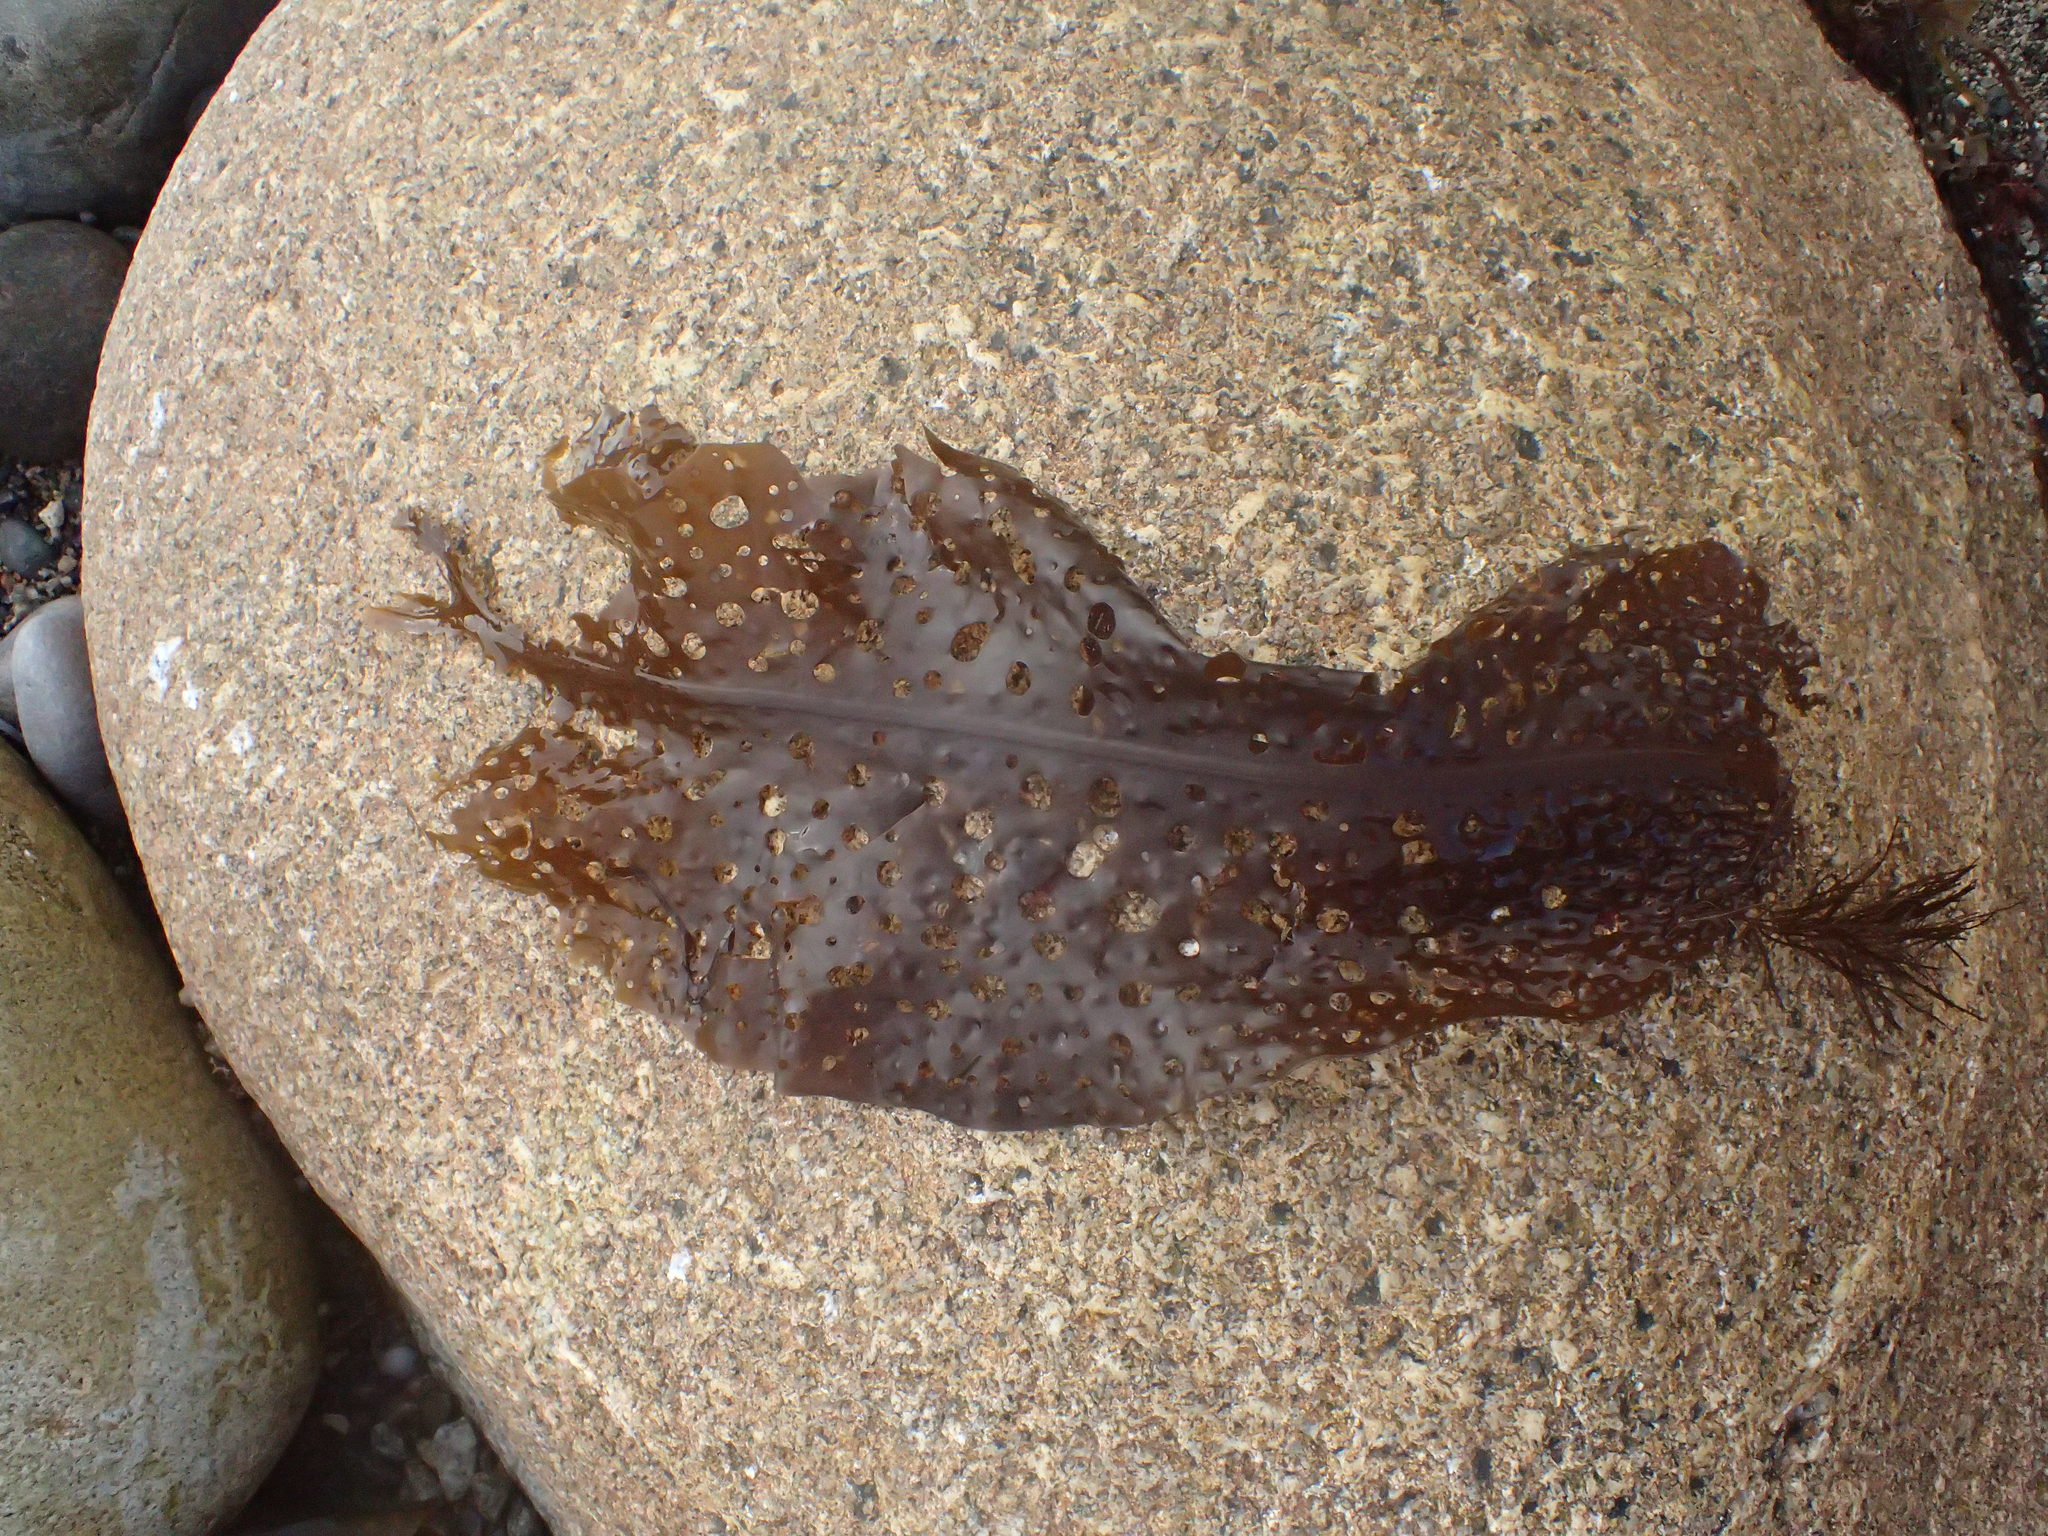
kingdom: Chromista
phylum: Ochrophyta
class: Phaeophyceae
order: Laminariales
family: Costariaceae
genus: Agarum
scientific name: Agarum clathratum
